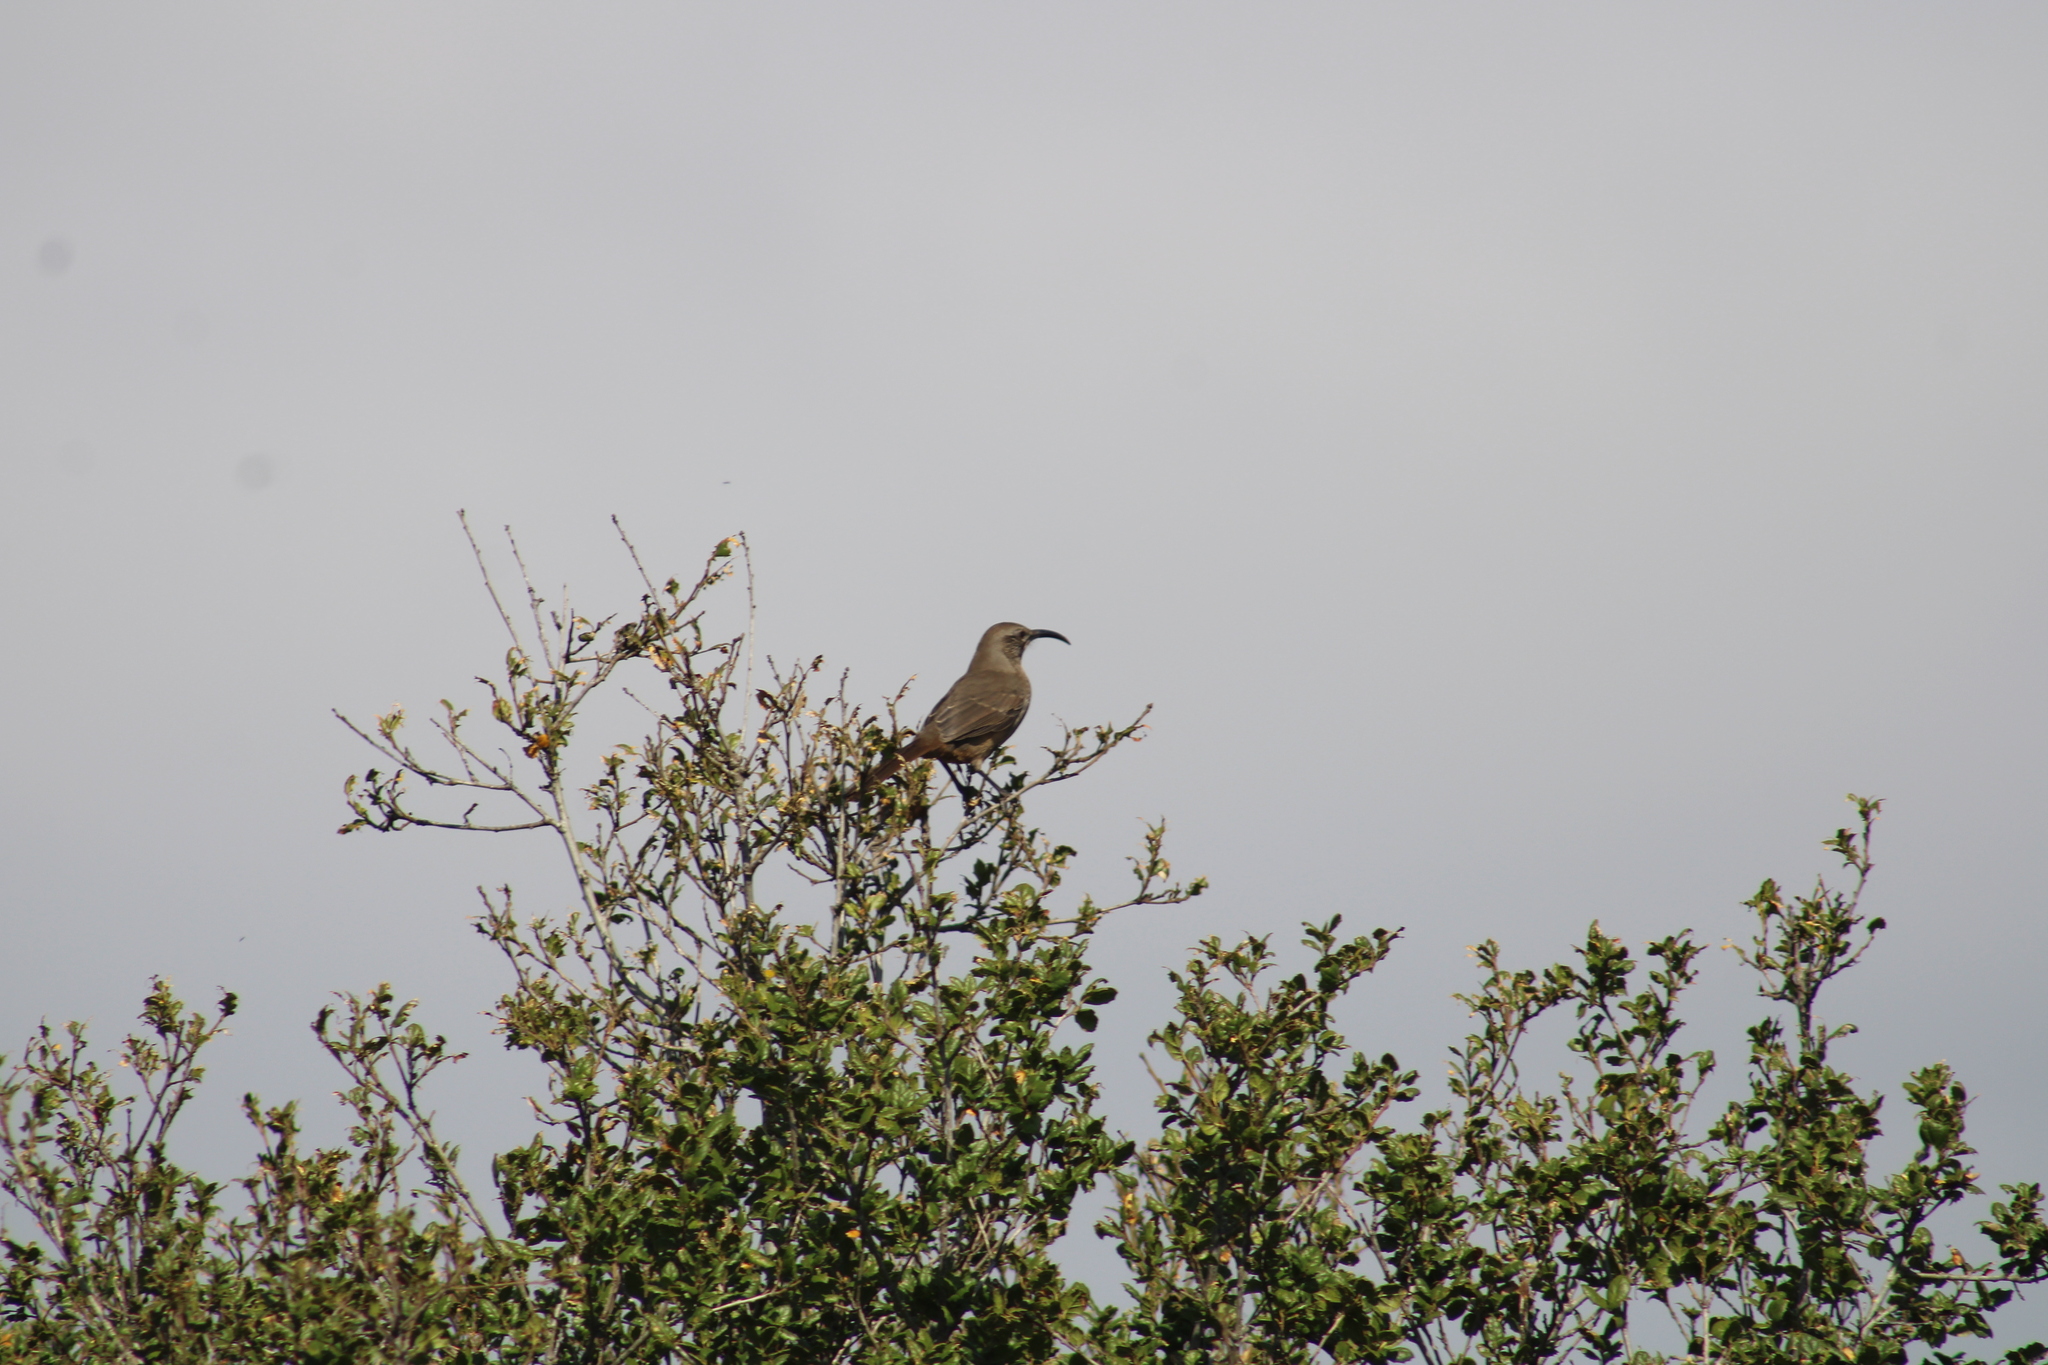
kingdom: Animalia
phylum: Chordata
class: Aves
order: Passeriformes
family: Mimidae
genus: Toxostoma
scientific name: Toxostoma redivivum
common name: California thrasher
